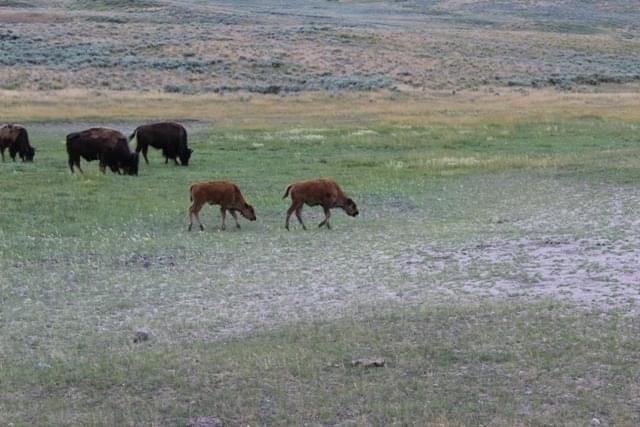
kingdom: Animalia
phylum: Chordata
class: Mammalia
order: Artiodactyla
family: Bovidae
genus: Bison
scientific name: Bison bison
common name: American bison
